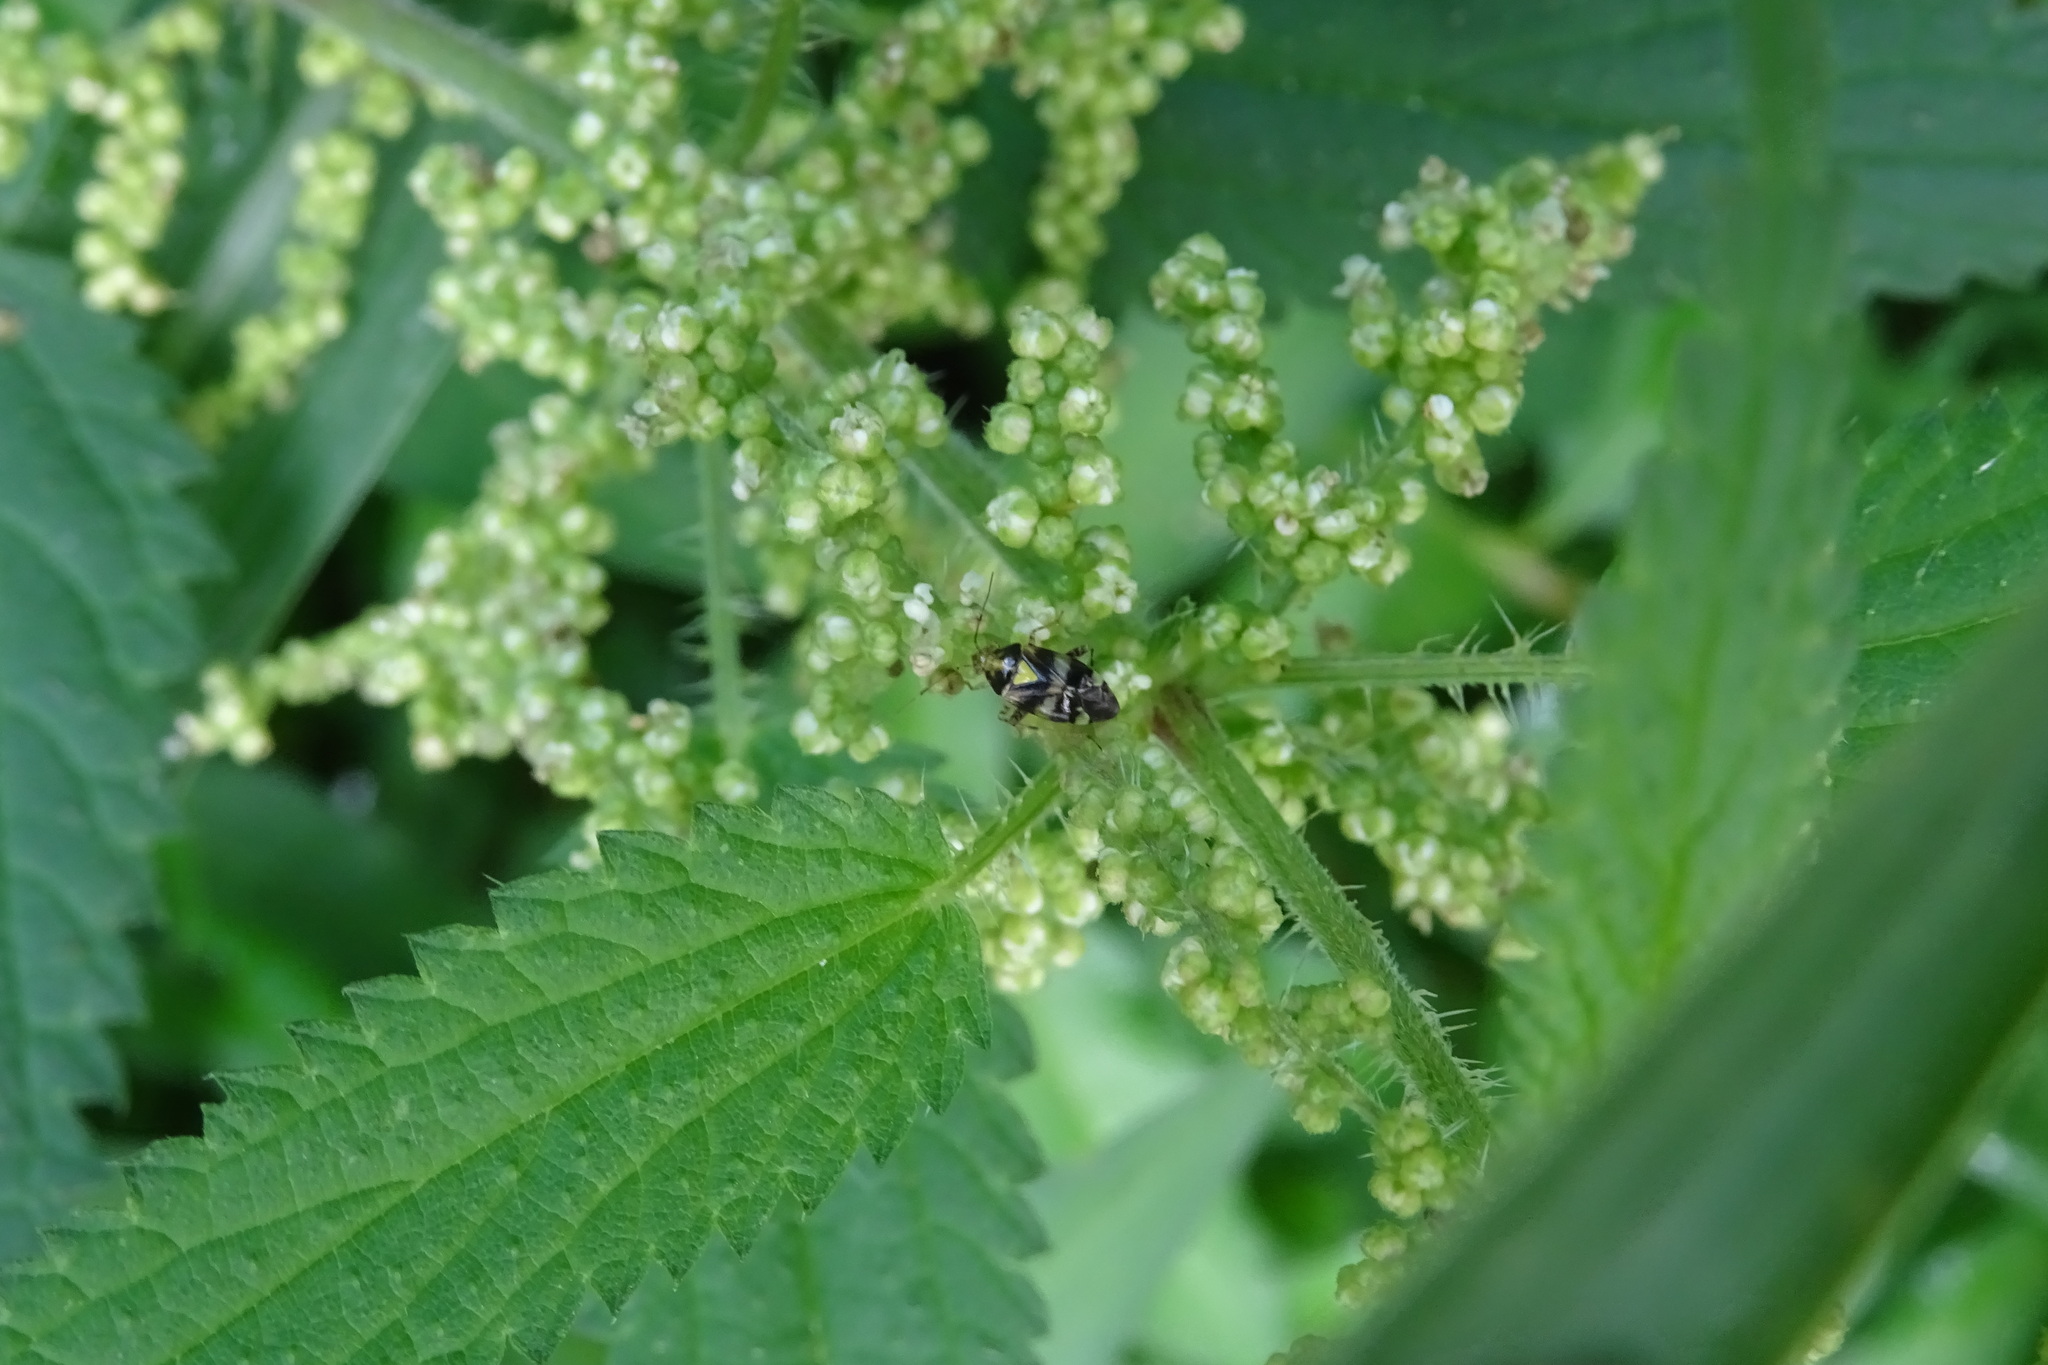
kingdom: Animalia
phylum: Arthropoda
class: Insecta
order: Hemiptera
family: Miridae
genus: Liocoris
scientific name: Liocoris tripustulatus
